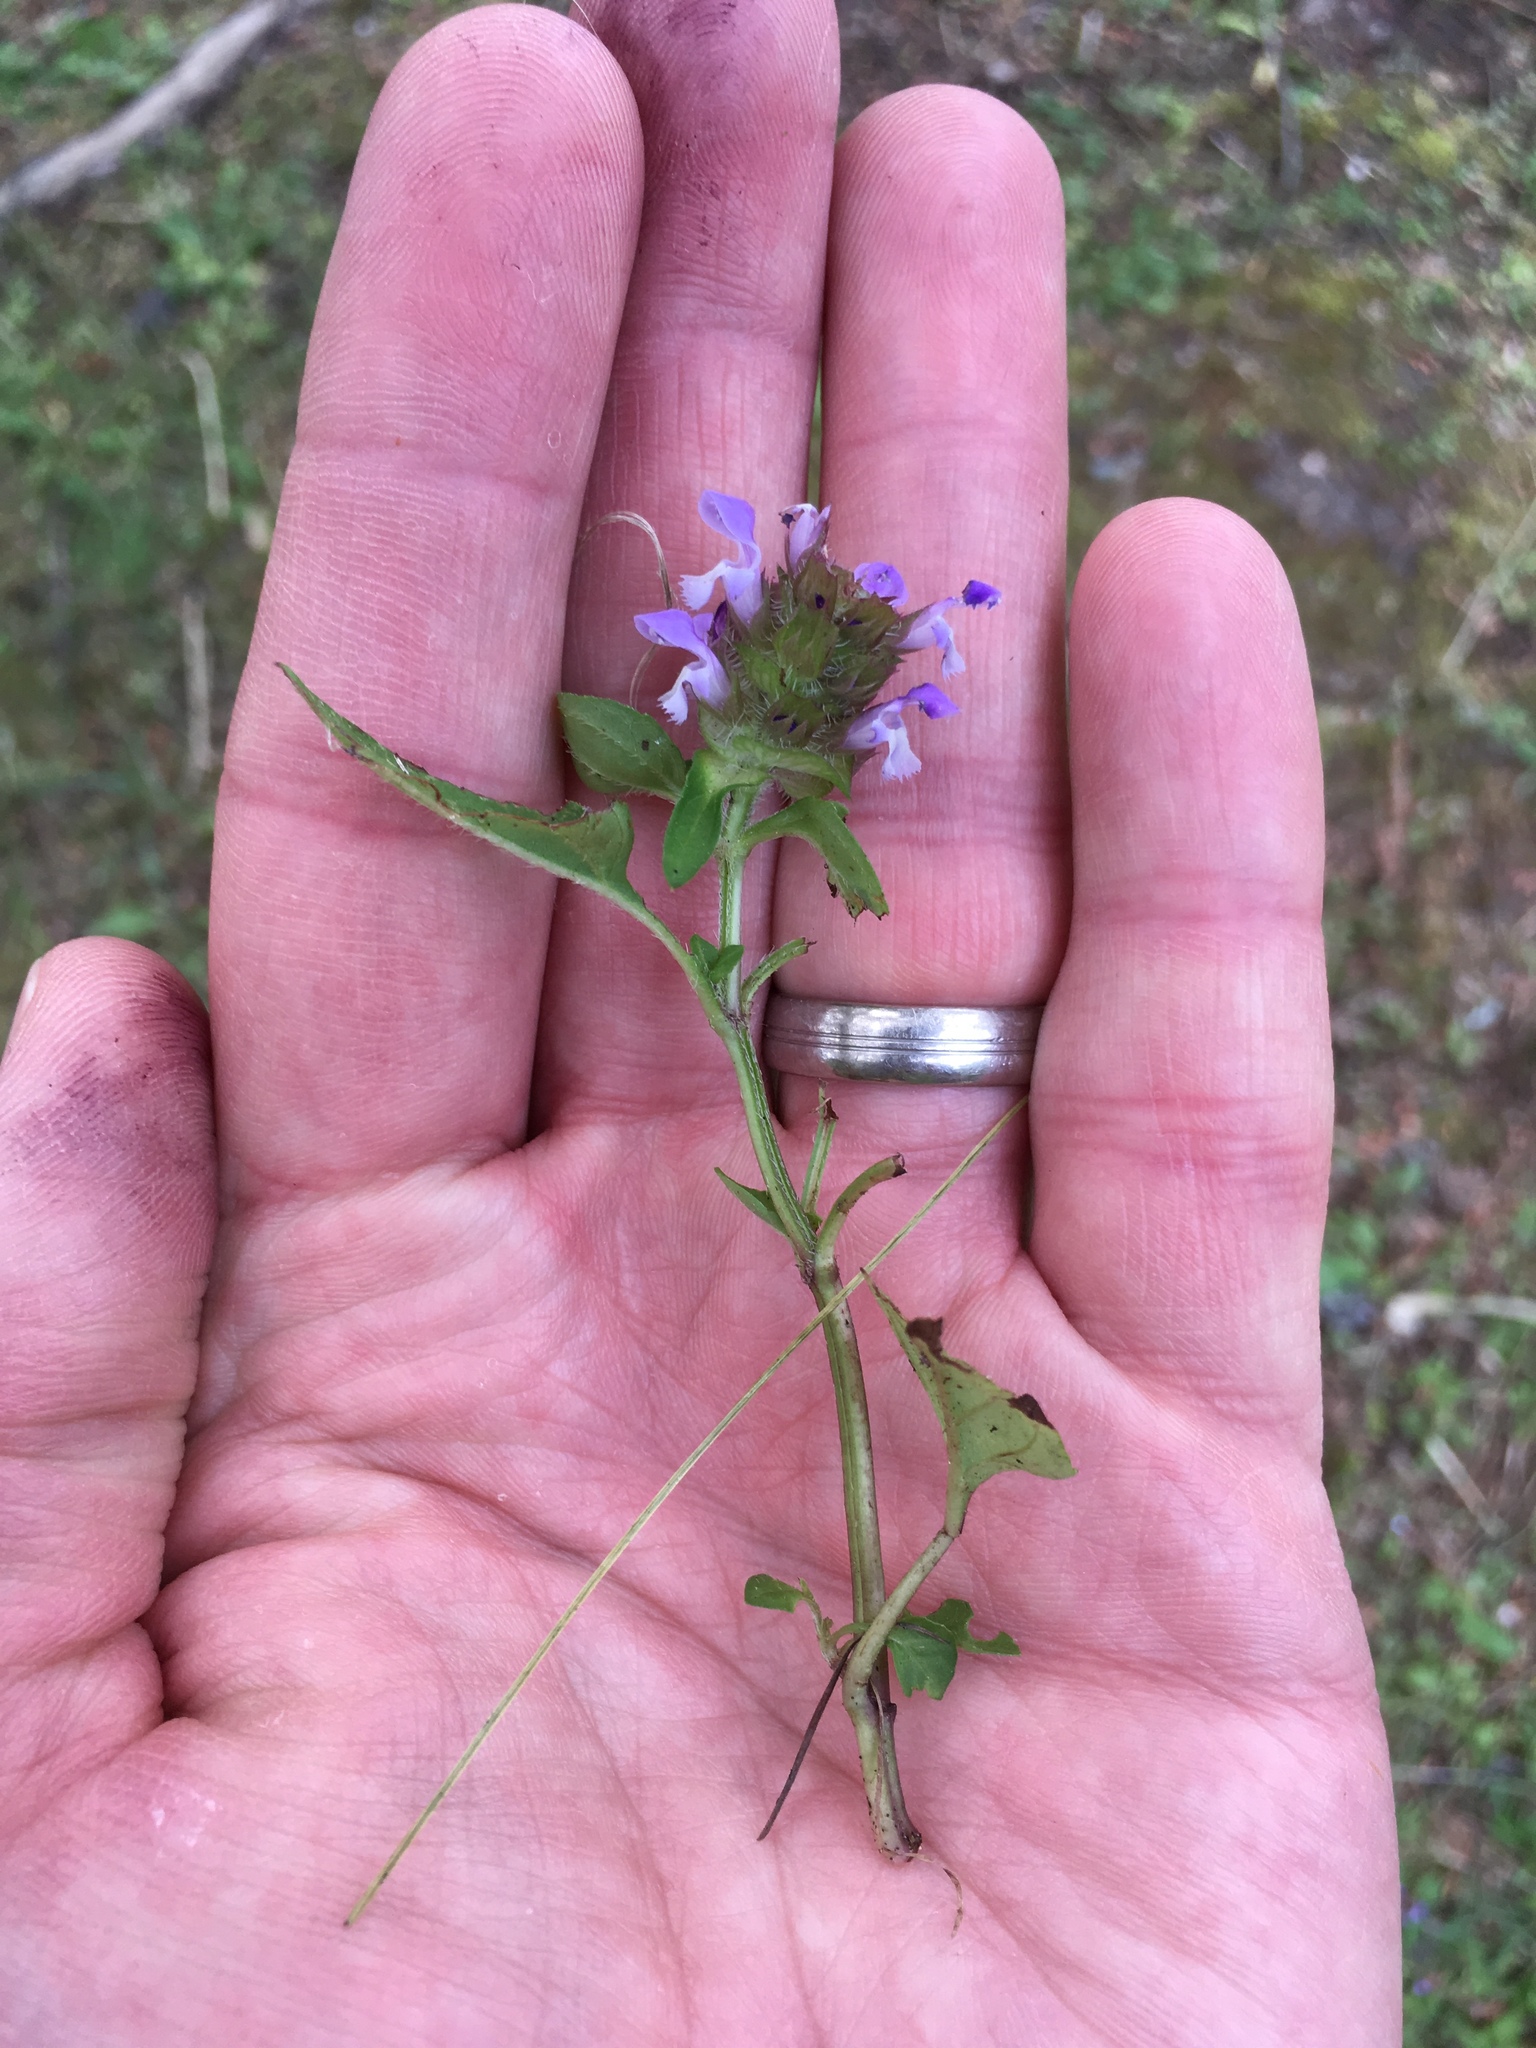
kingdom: Plantae
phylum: Tracheophyta
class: Magnoliopsida
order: Lamiales
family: Lamiaceae
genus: Prunella
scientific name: Prunella vulgaris
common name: Heal-all
